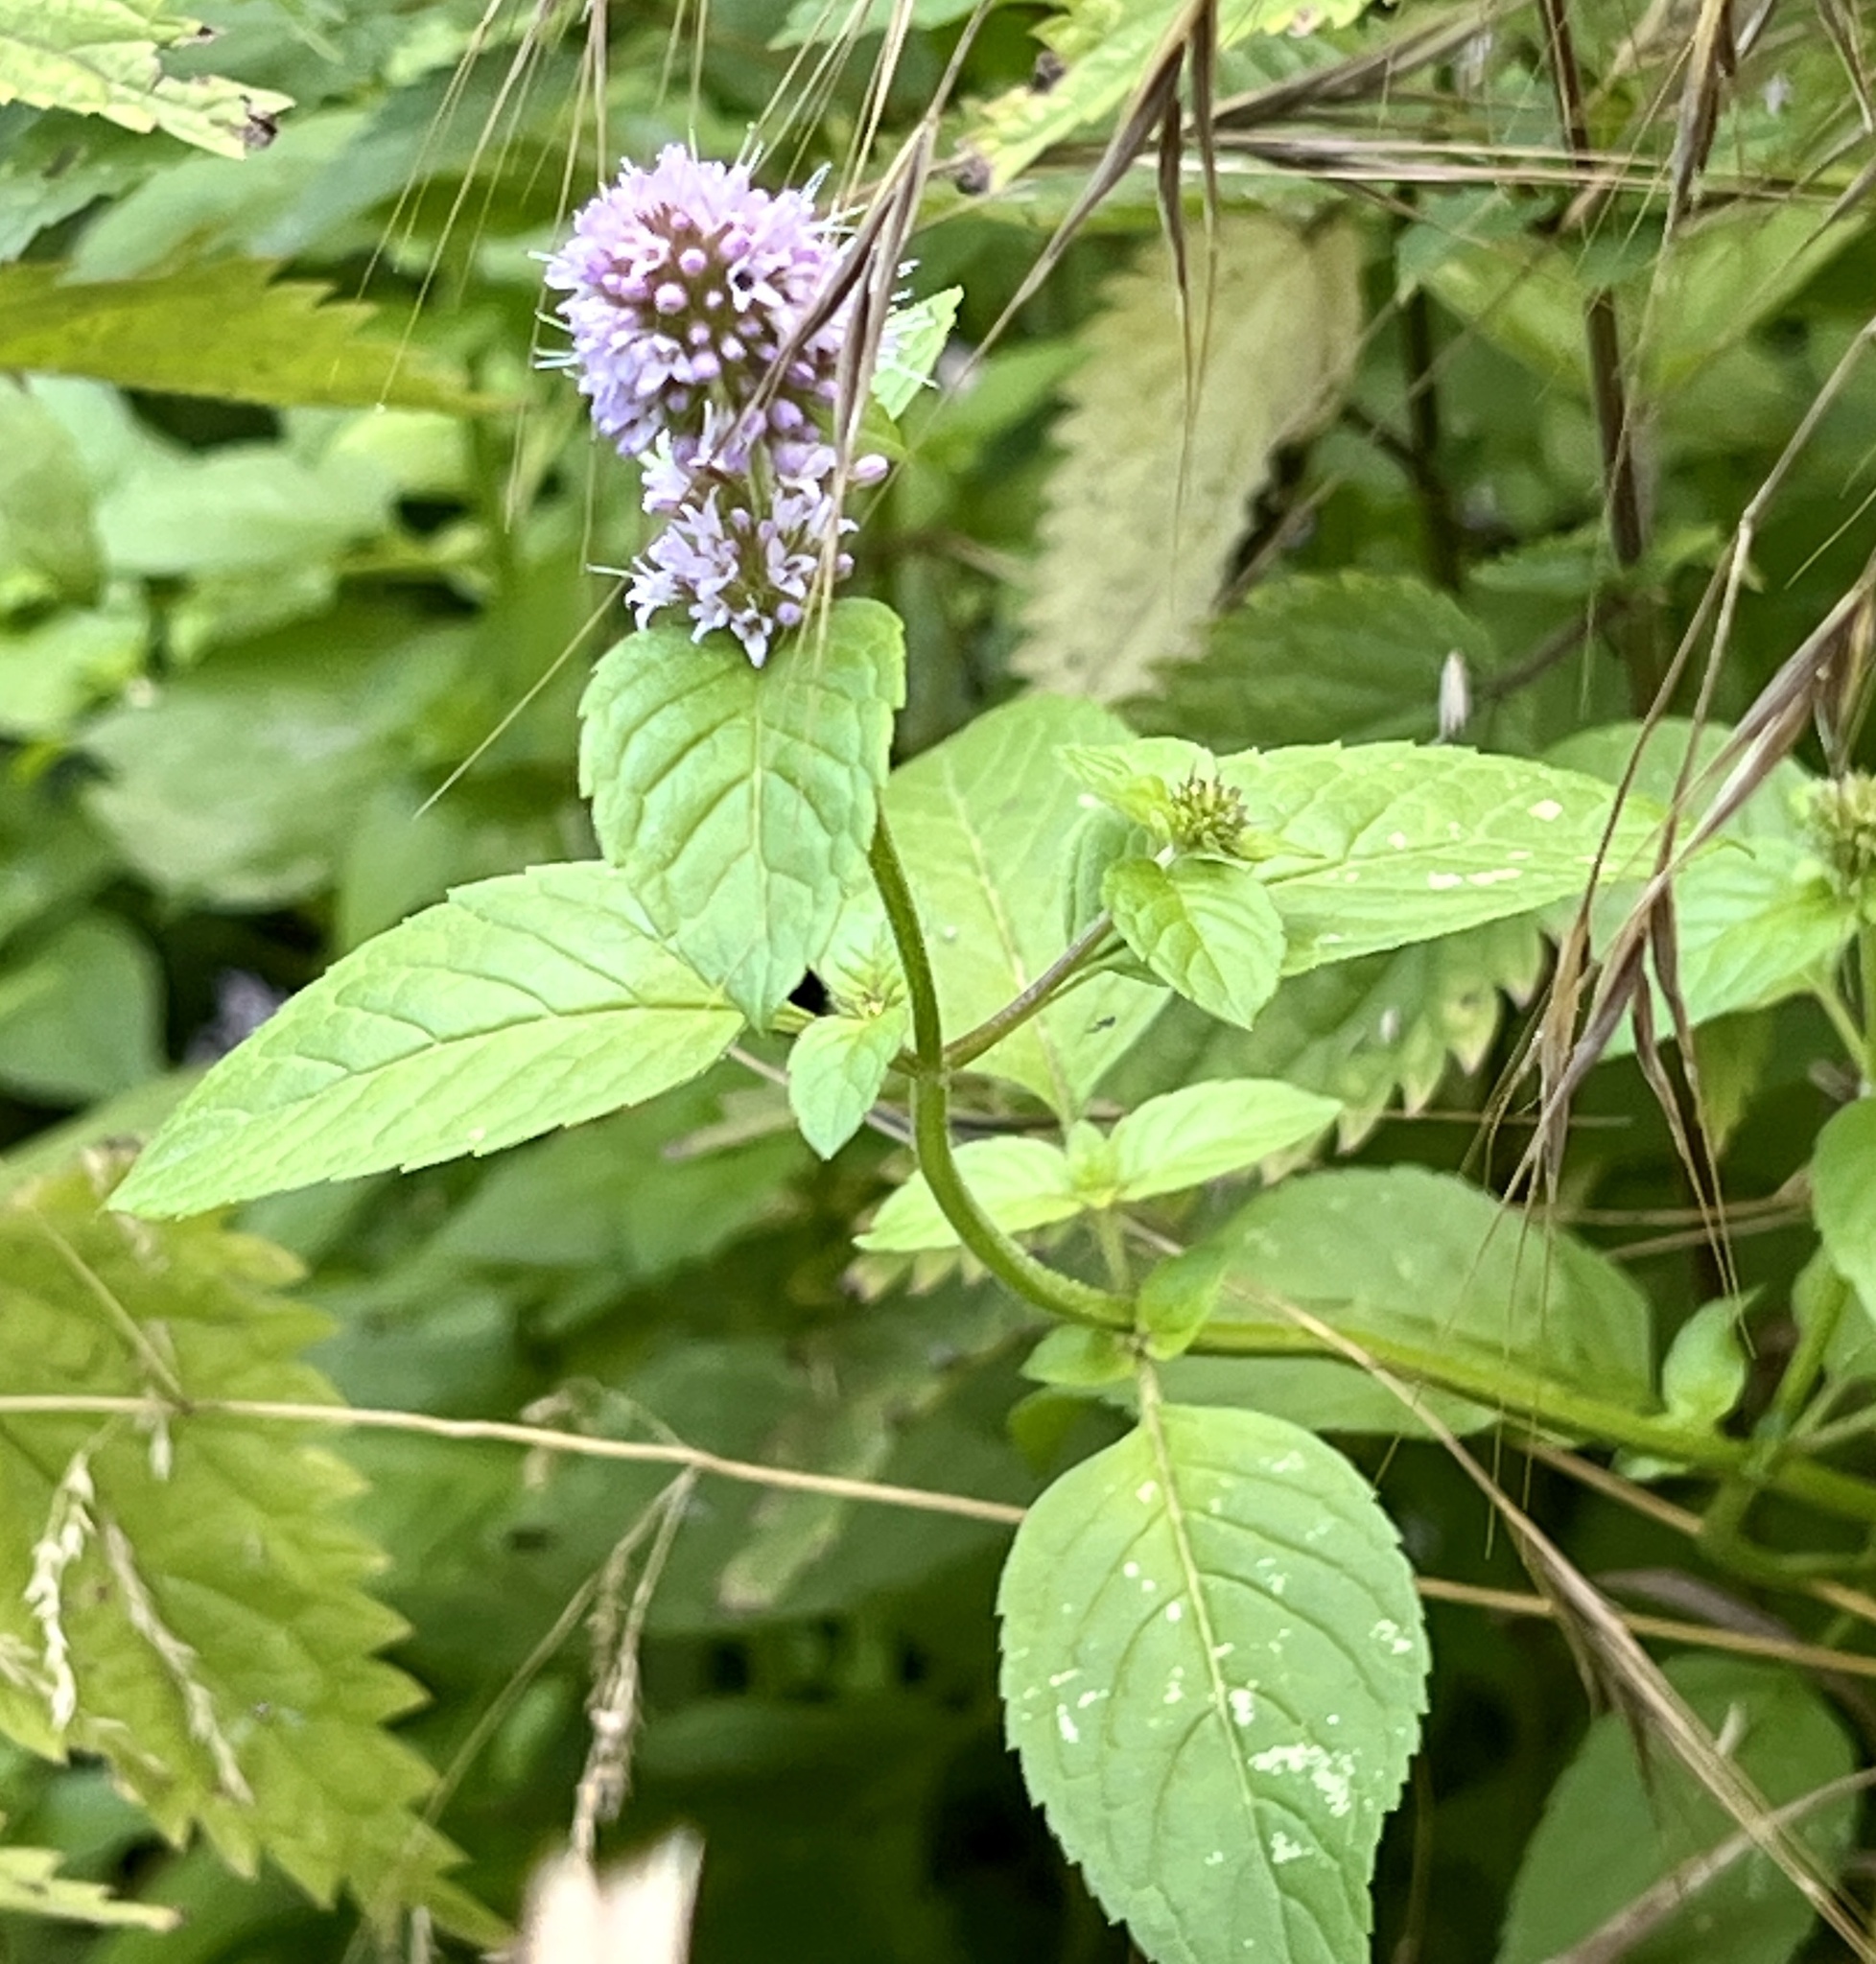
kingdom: Plantae
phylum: Tracheophyta
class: Magnoliopsida
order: Lamiales
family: Lamiaceae
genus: Mentha
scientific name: Mentha aquatica
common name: Water mint
